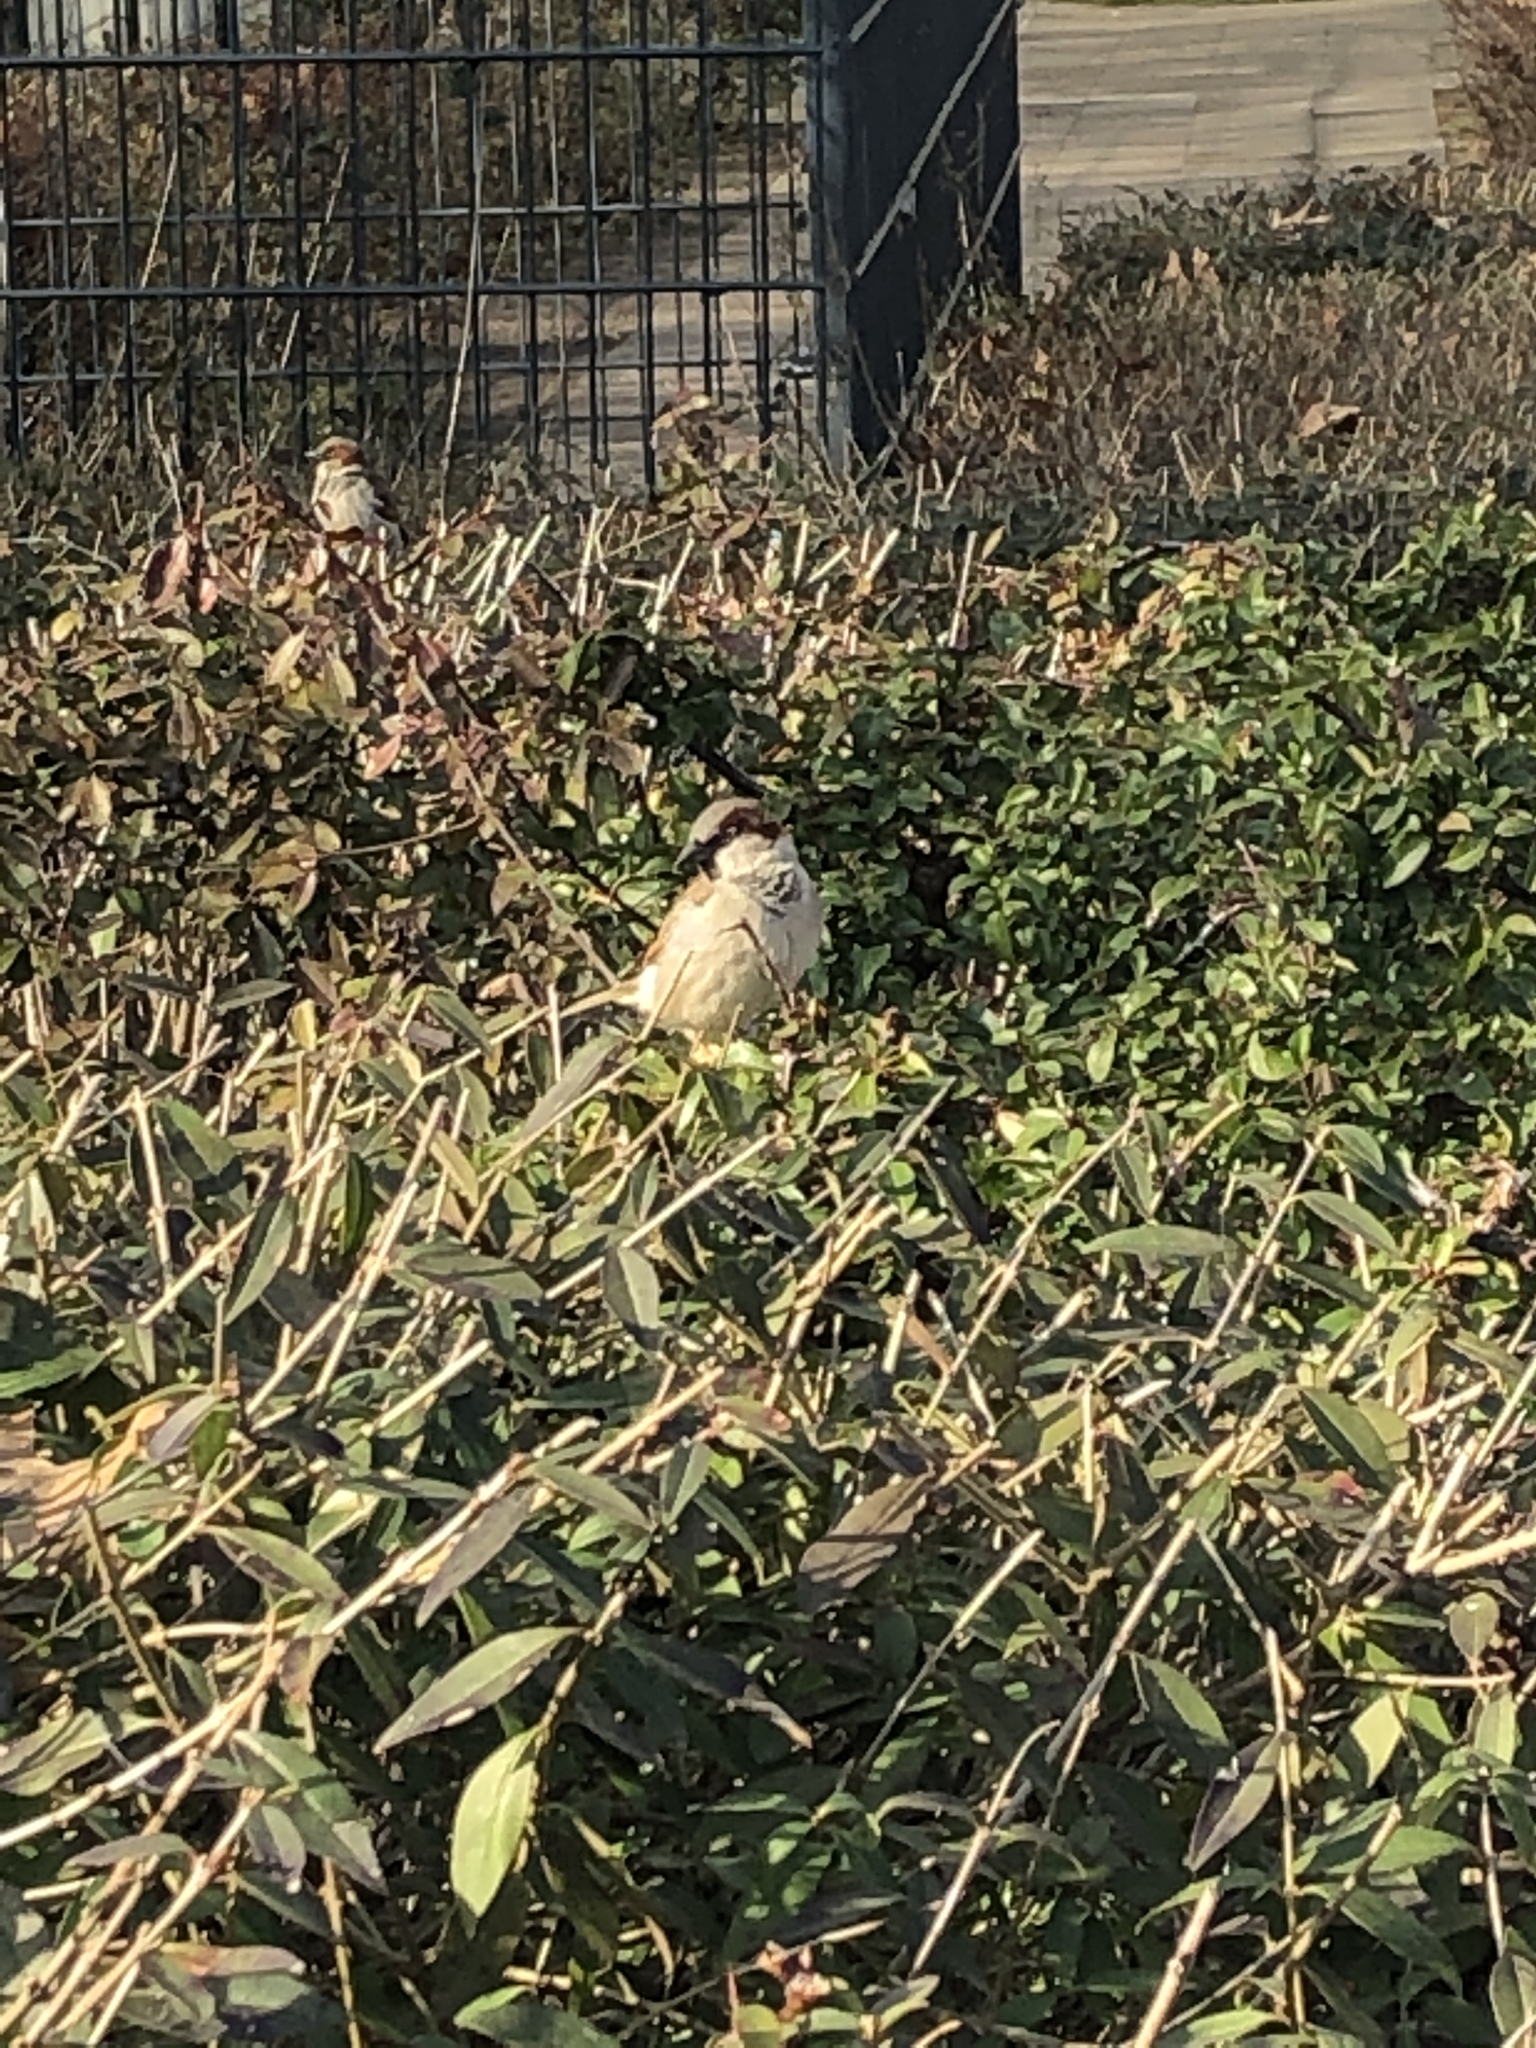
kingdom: Animalia
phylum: Chordata
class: Aves
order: Passeriformes
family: Passeridae
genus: Passer
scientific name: Passer domesticus
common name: House sparrow
